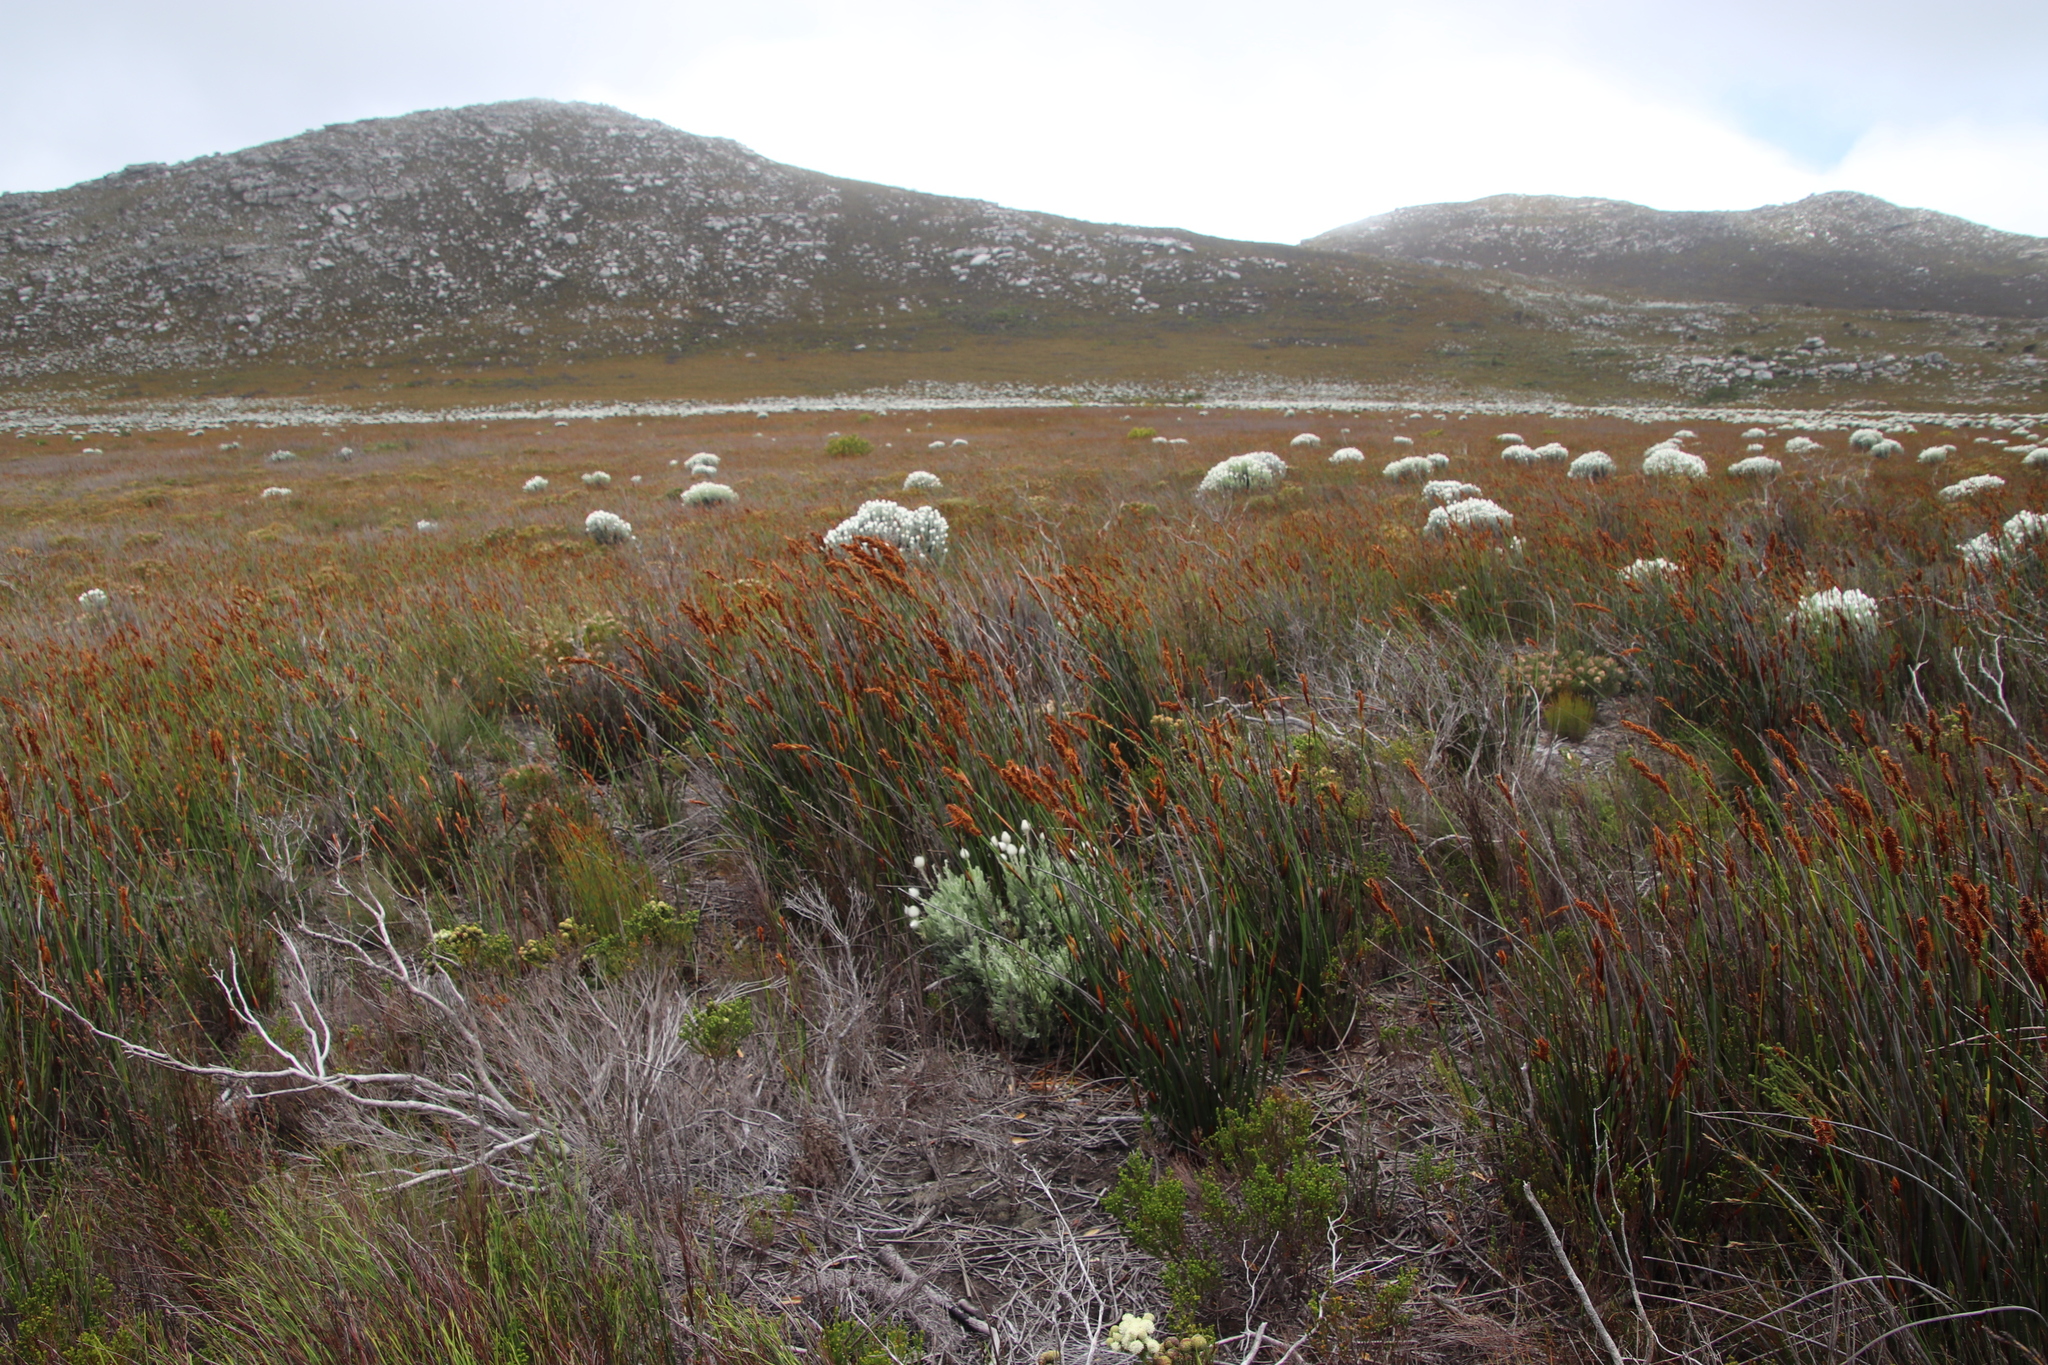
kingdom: Plantae
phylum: Tracheophyta
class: Liliopsida
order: Poales
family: Restionaceae
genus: Elegia
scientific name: Elegia cuspidata
